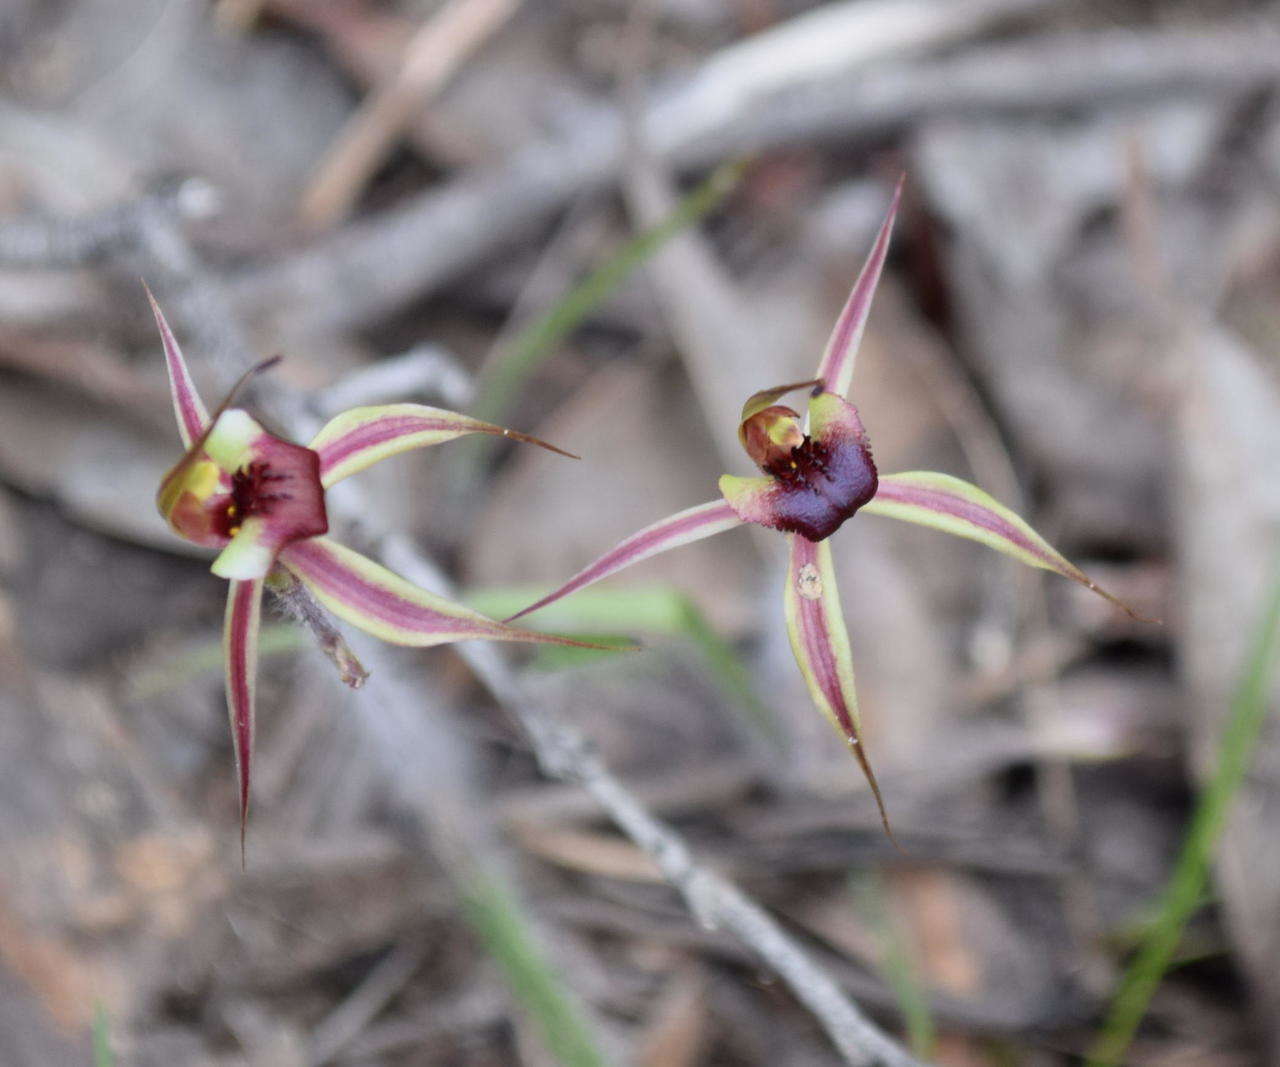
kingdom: Plantae
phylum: Tracheophyta
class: Liliopsida
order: Asparagales
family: Orchidaceae
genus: Caladenia
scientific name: Caladenia clavigera
